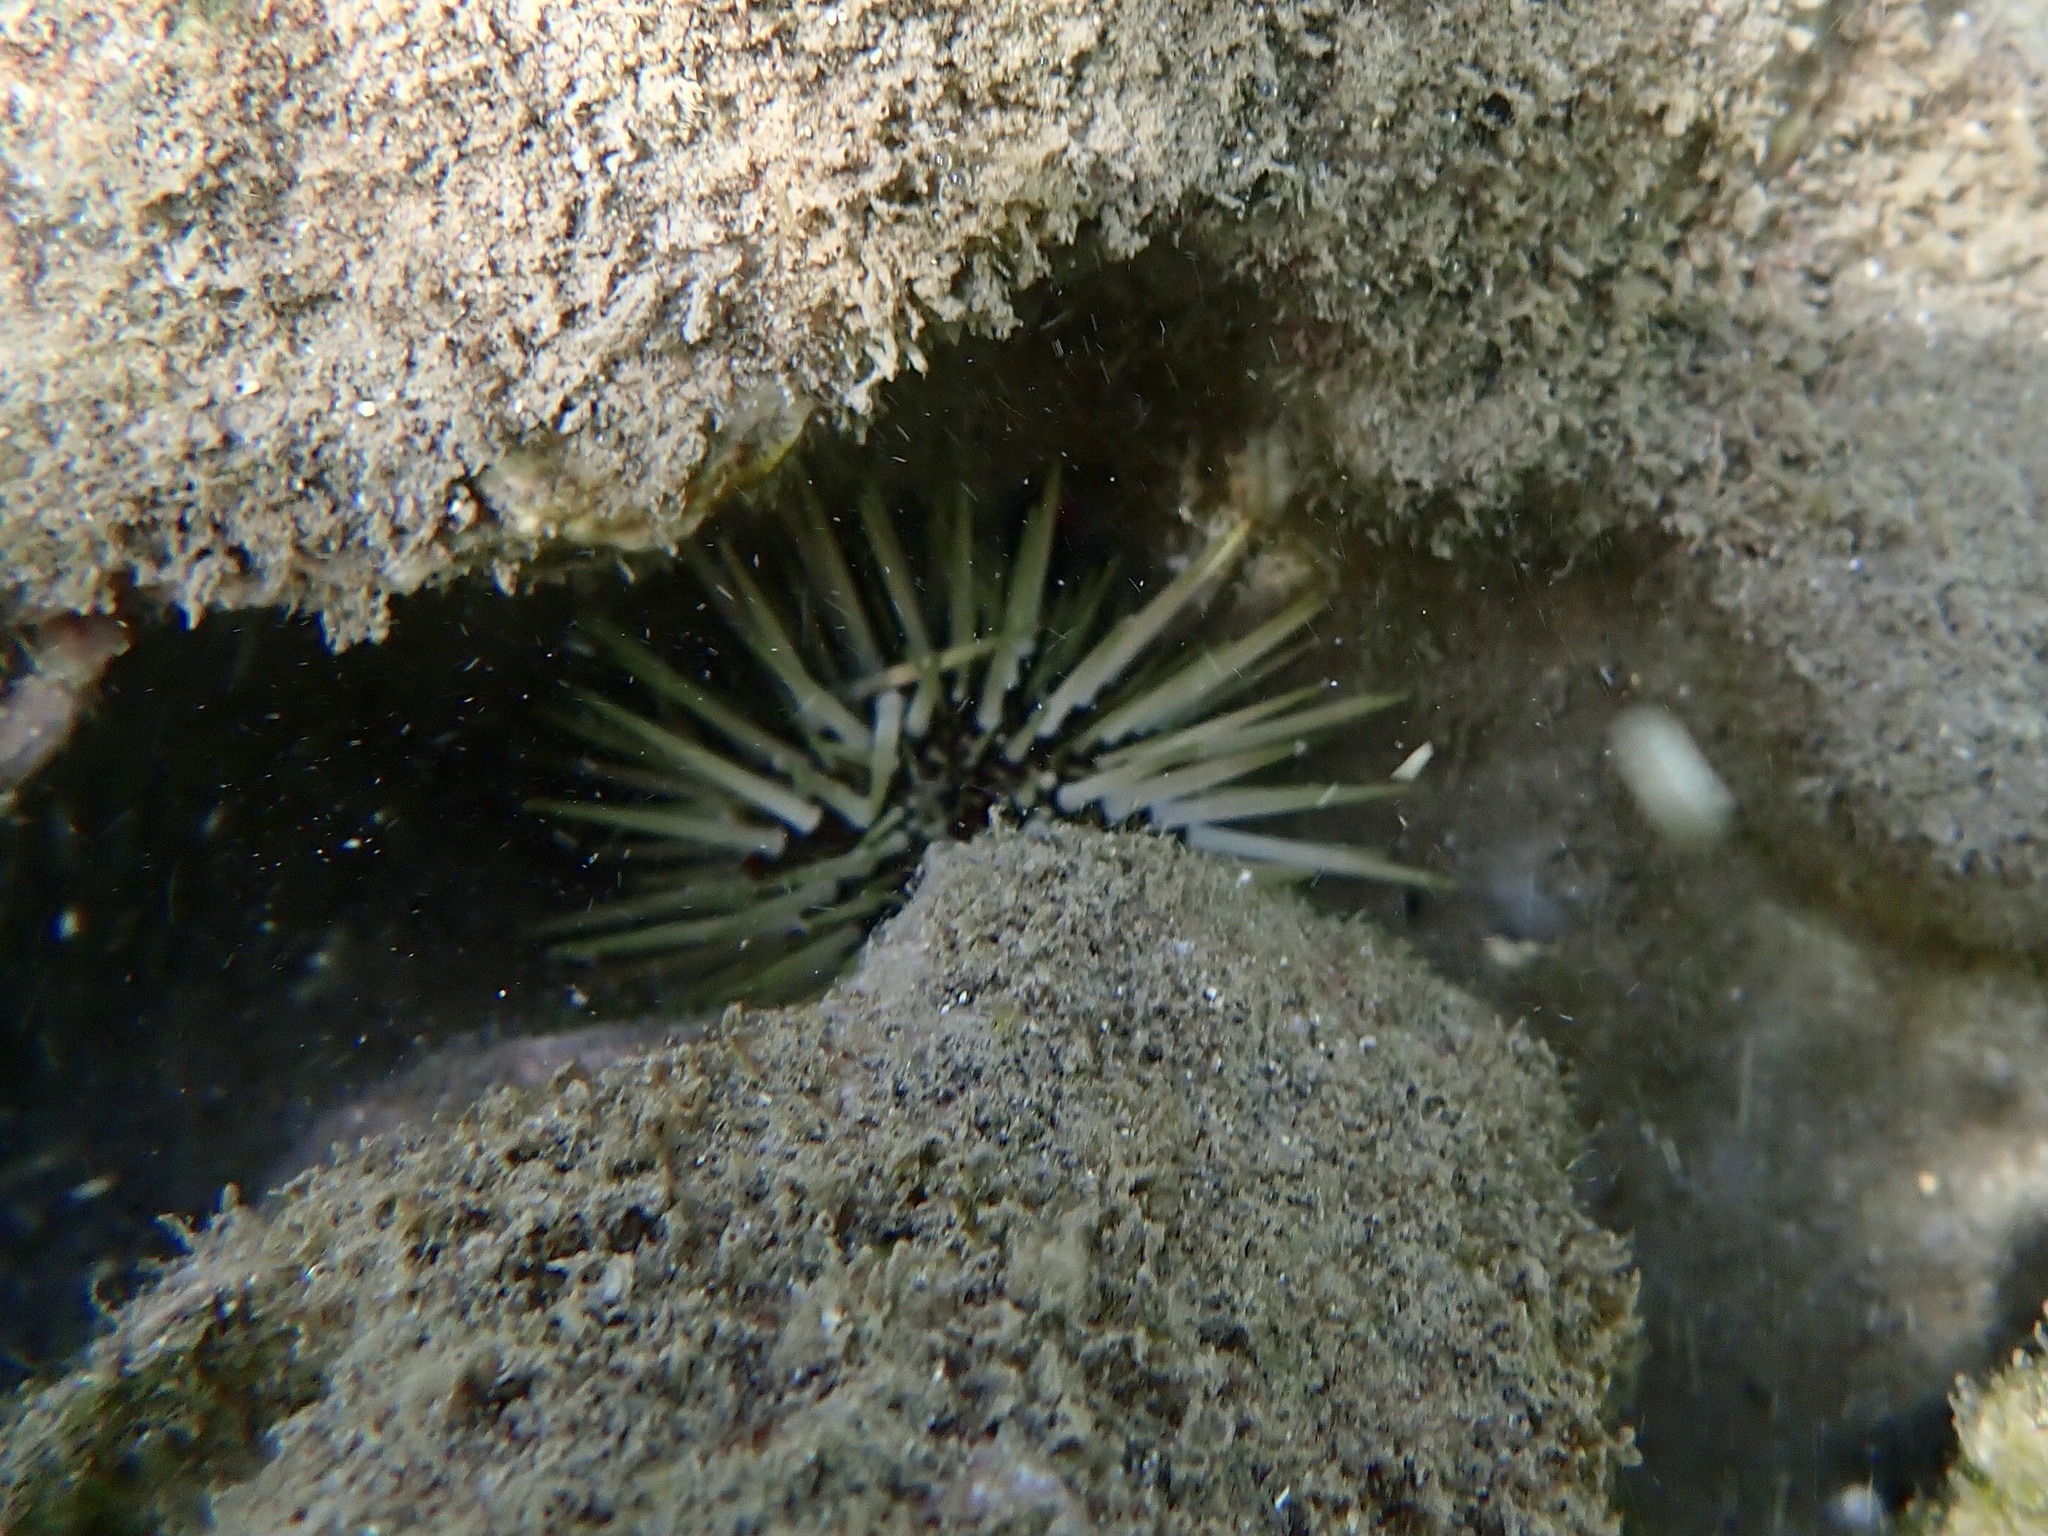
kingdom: Animalia
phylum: Echinodermata
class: Echinoidea
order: Camarodonta
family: Echinometridae
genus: Echinometra
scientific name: Echinometra mathaei
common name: Rock-boring urchin
